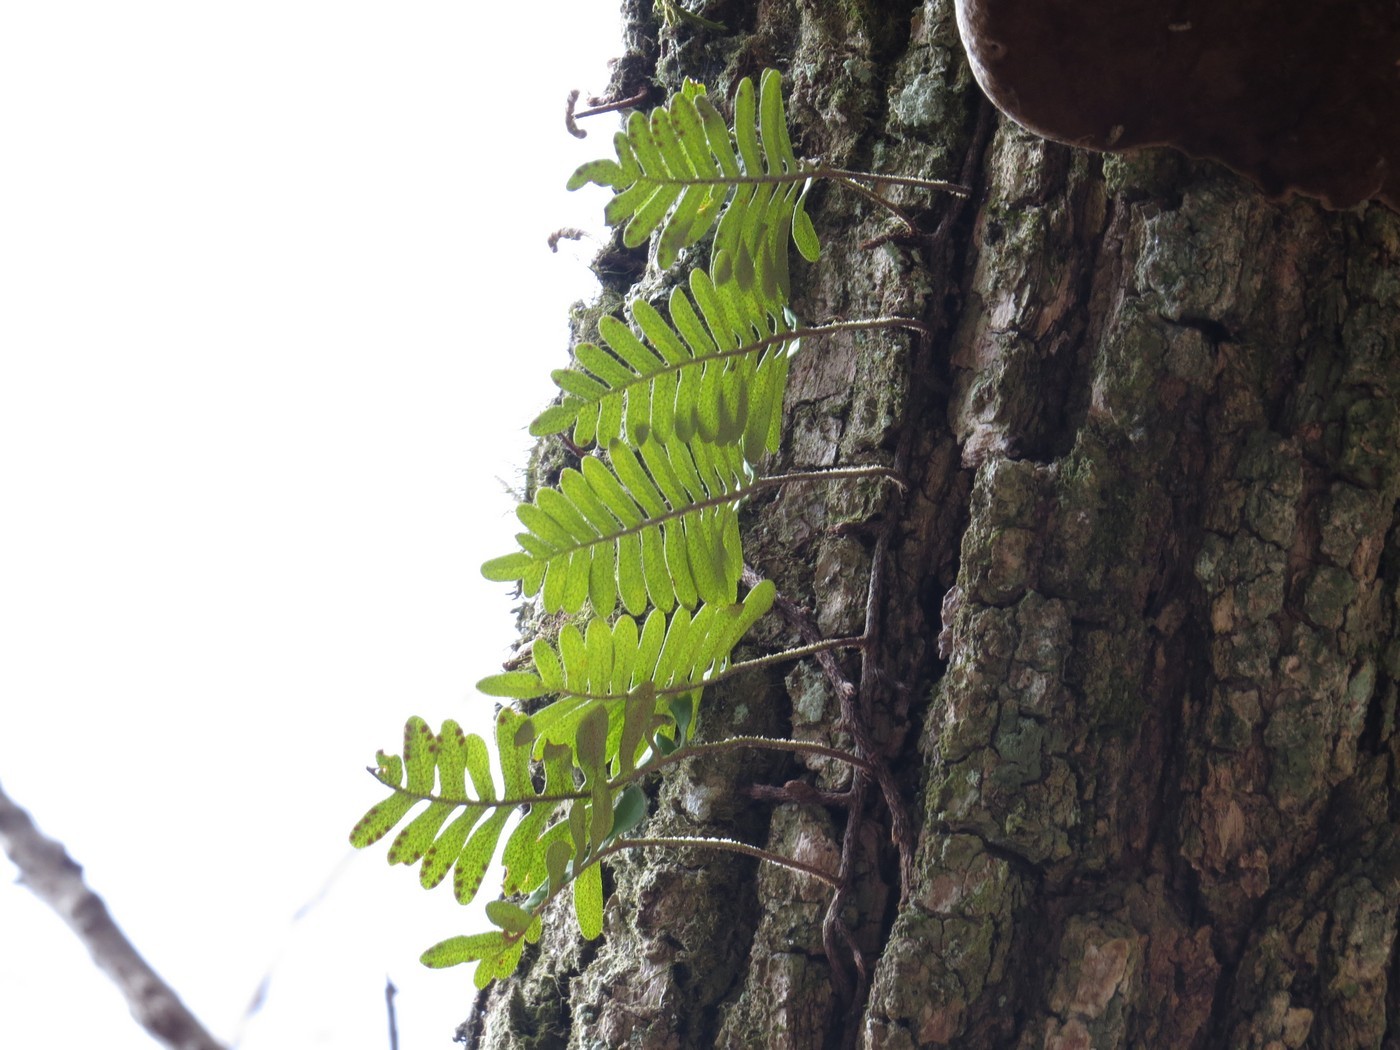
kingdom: Plantae
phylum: Tracheophyta
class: Polypodiopsida
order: Polypodiales
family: Polypodiaceae
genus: Pleopeltis
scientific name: Pleopeltis michauxiana
